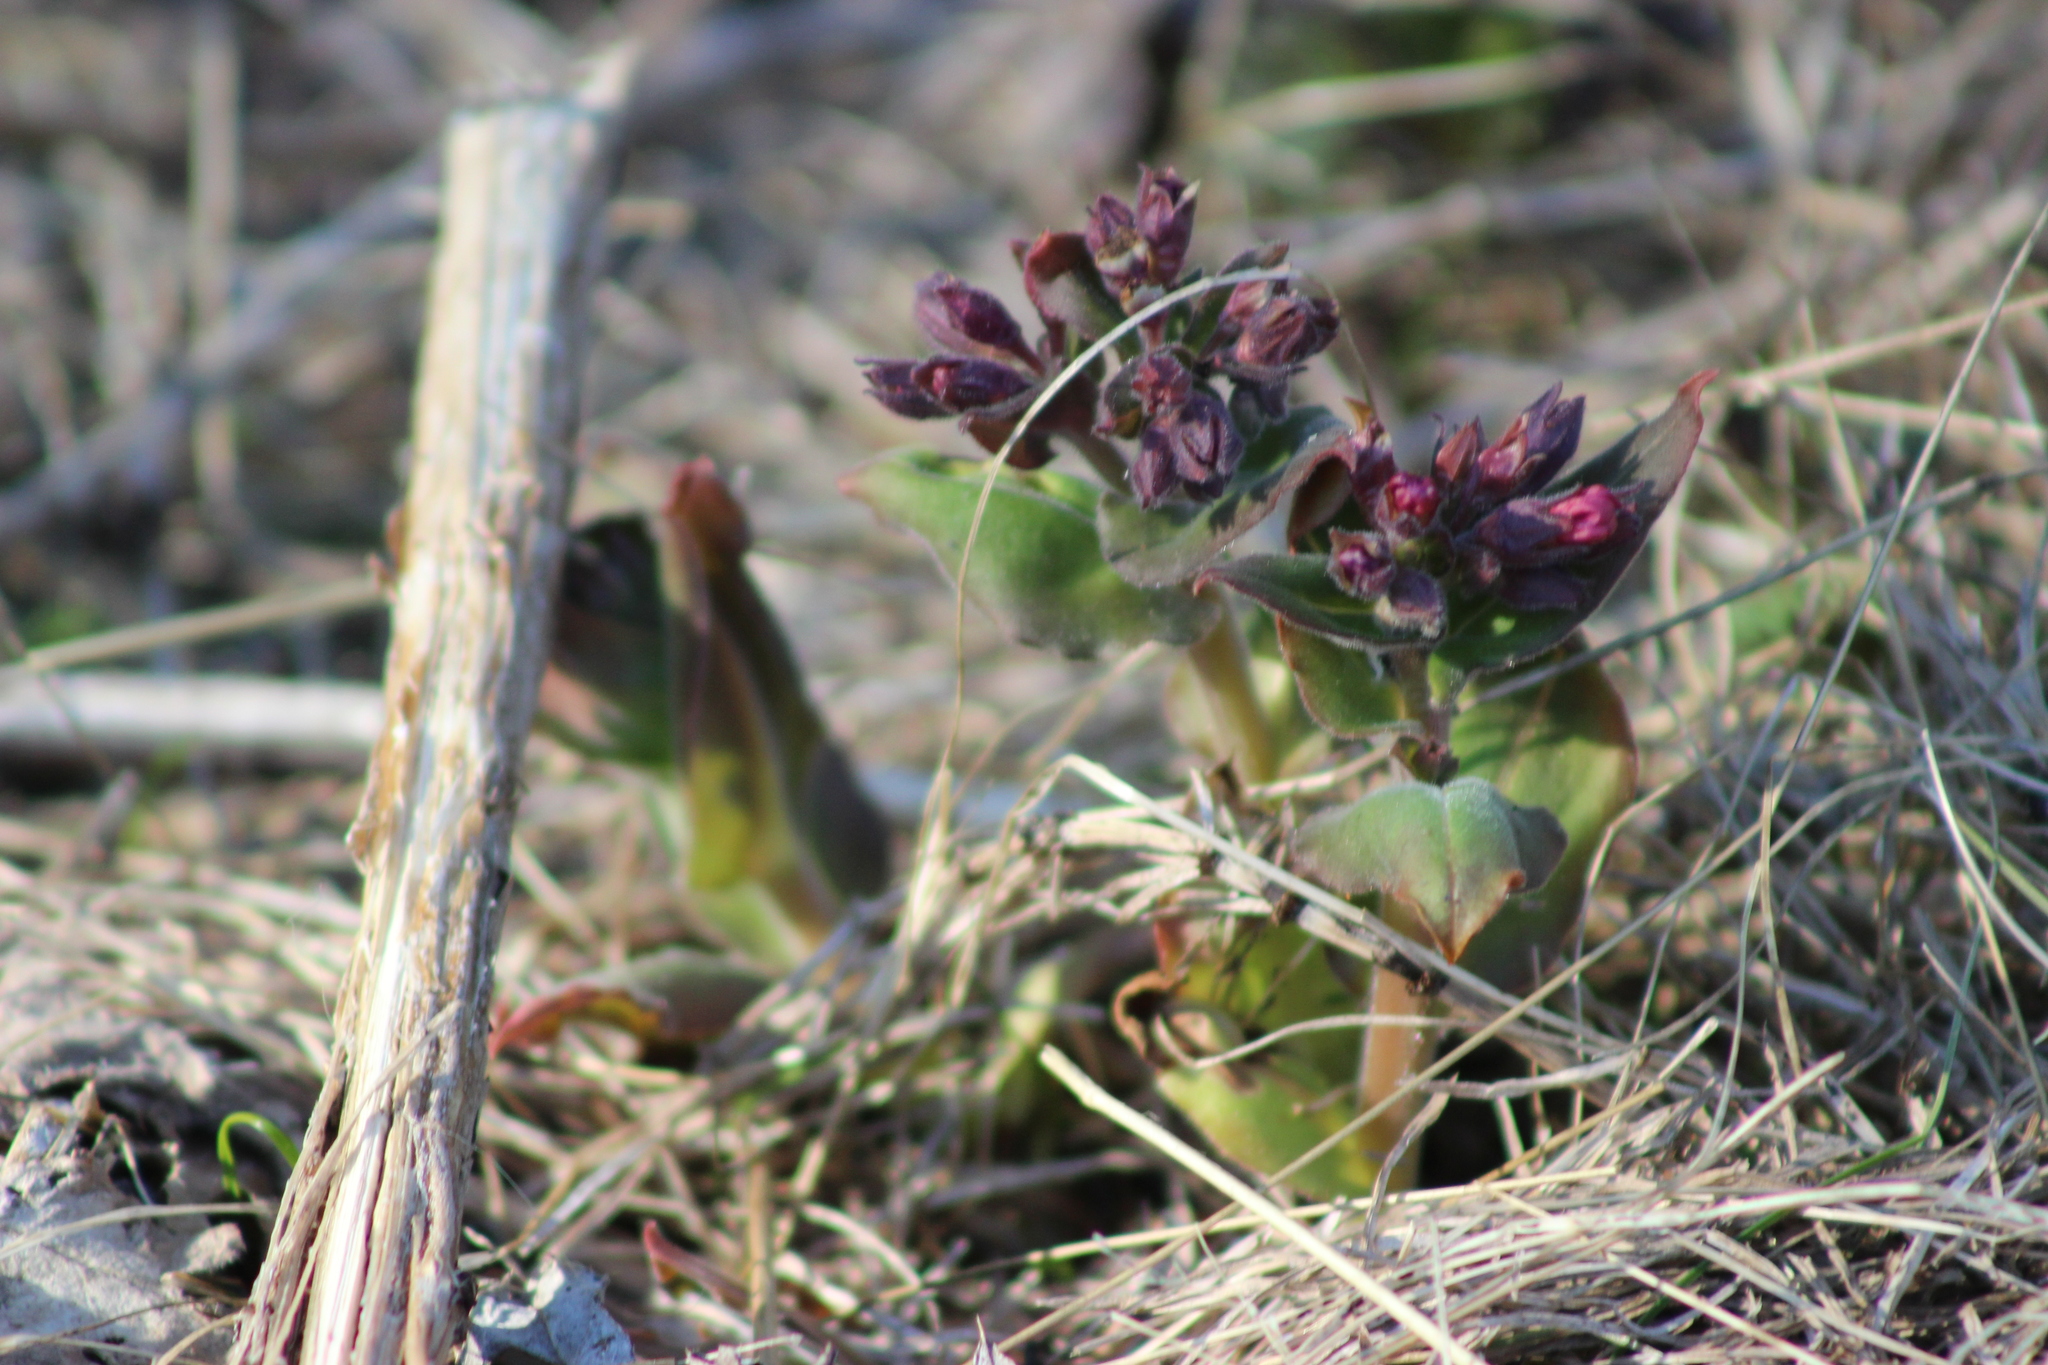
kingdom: Plantae
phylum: Tracheophyta
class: Magnoliopsida
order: Boraginales
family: Boraginaceae
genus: Pulmonaria
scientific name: Pulmonaria mollis
